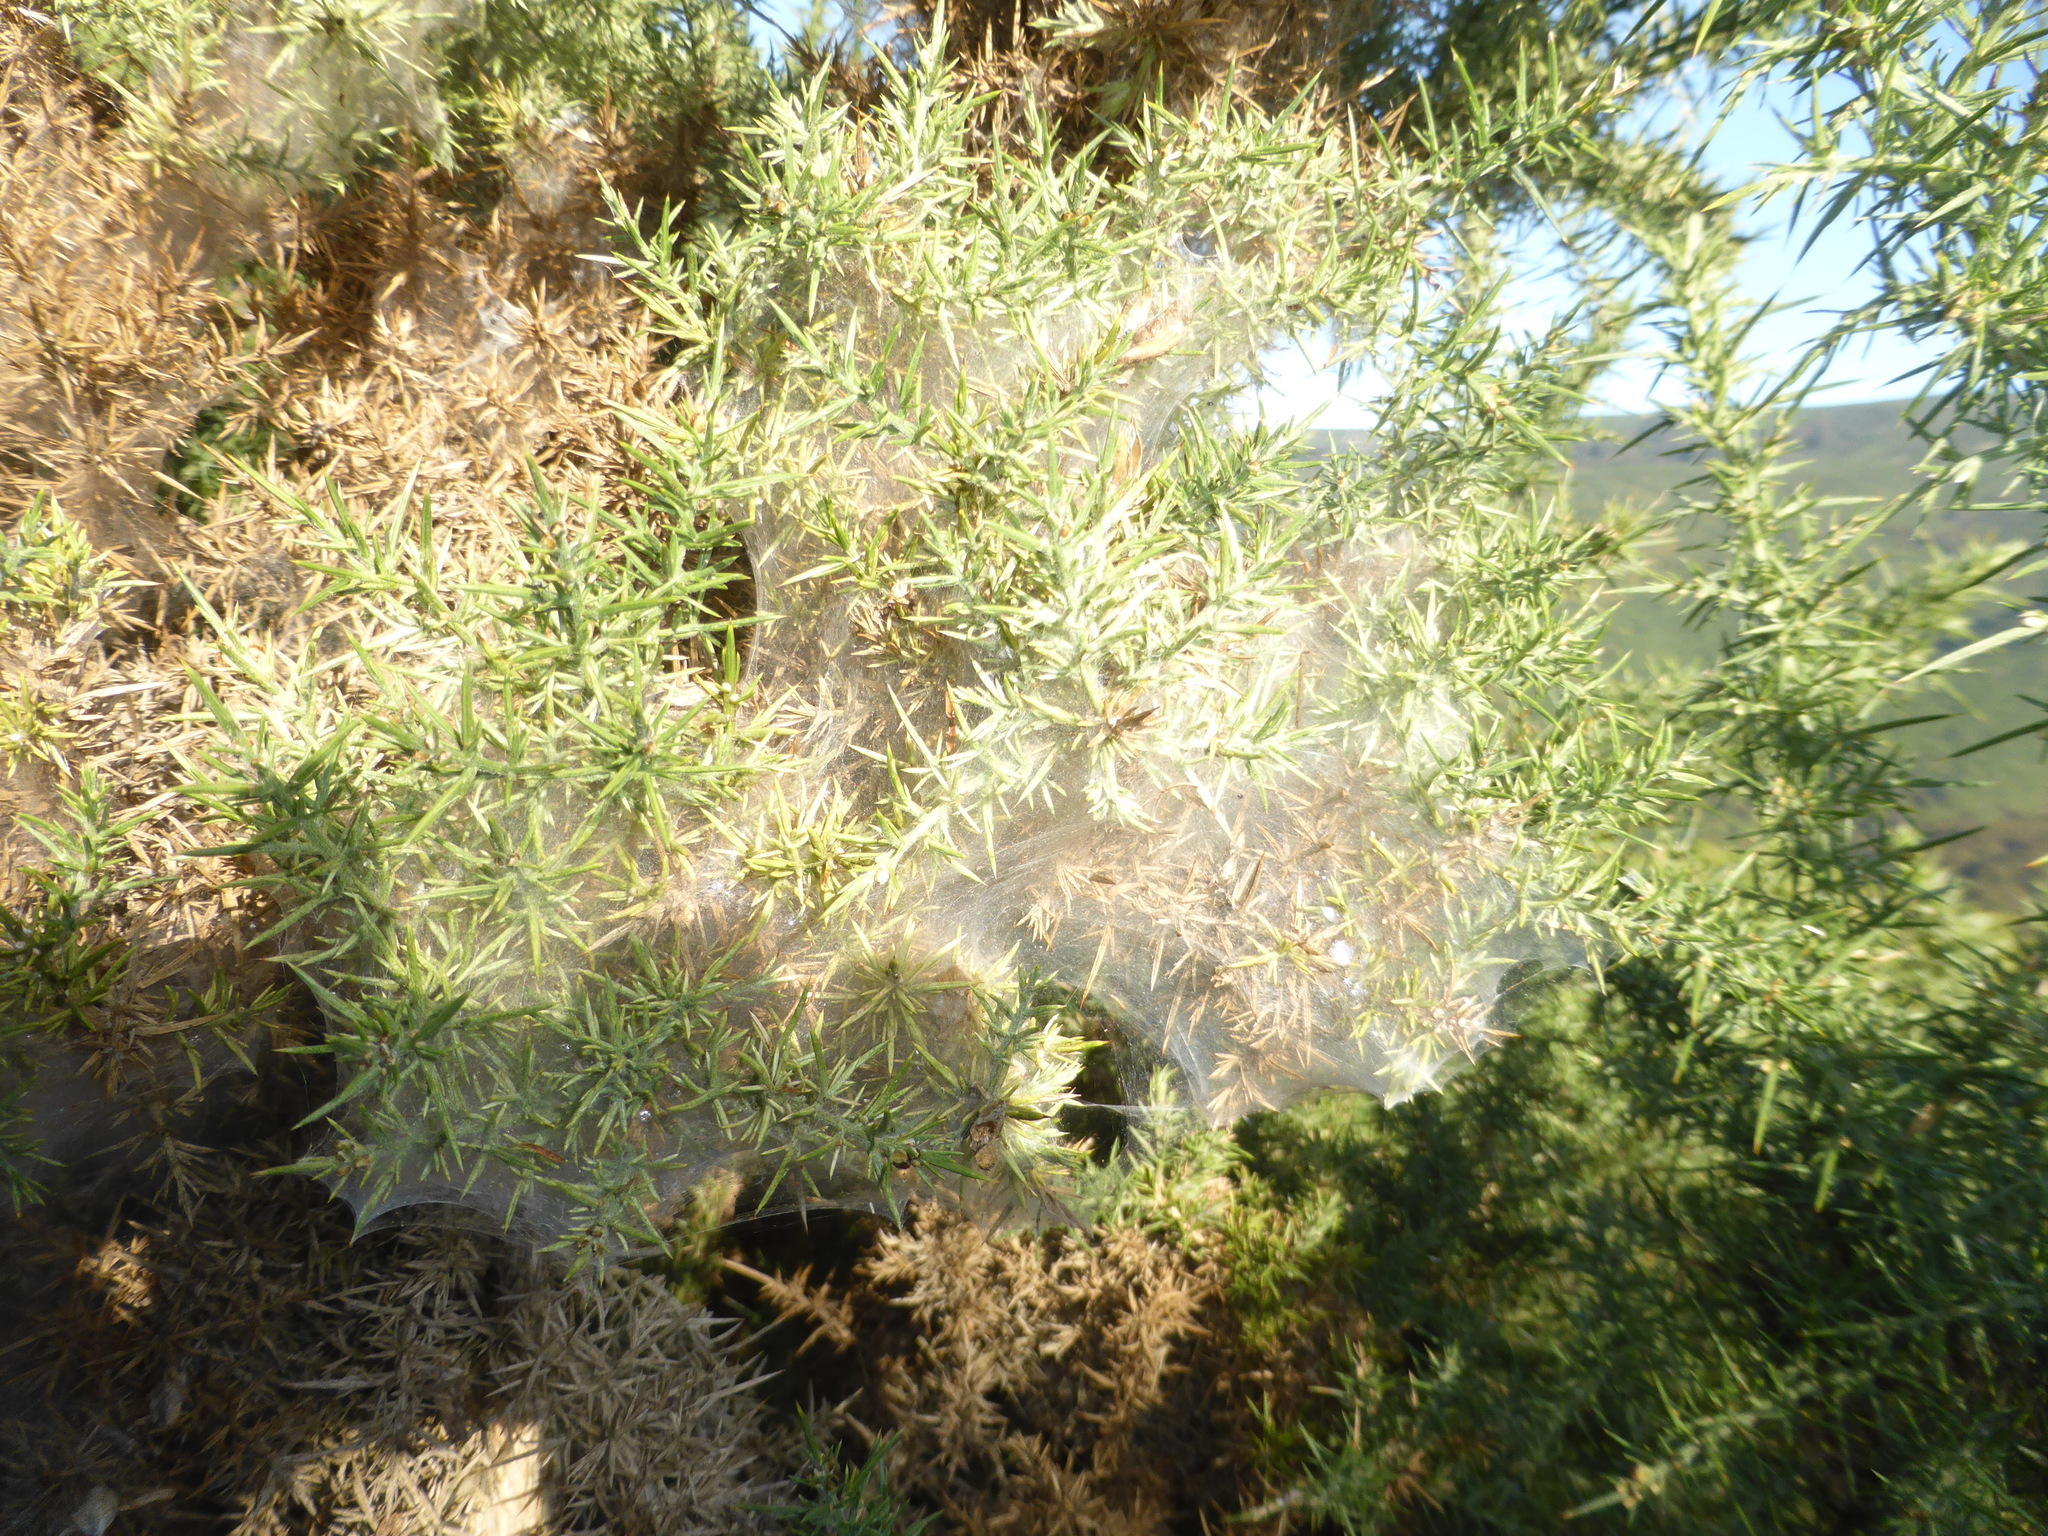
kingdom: Animalia
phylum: Arthropoda
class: Arachnida
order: Trombidiformes
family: Tetranychidae
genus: Tetranychus
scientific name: Tetranychus lintearius
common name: Gorse spider mite
